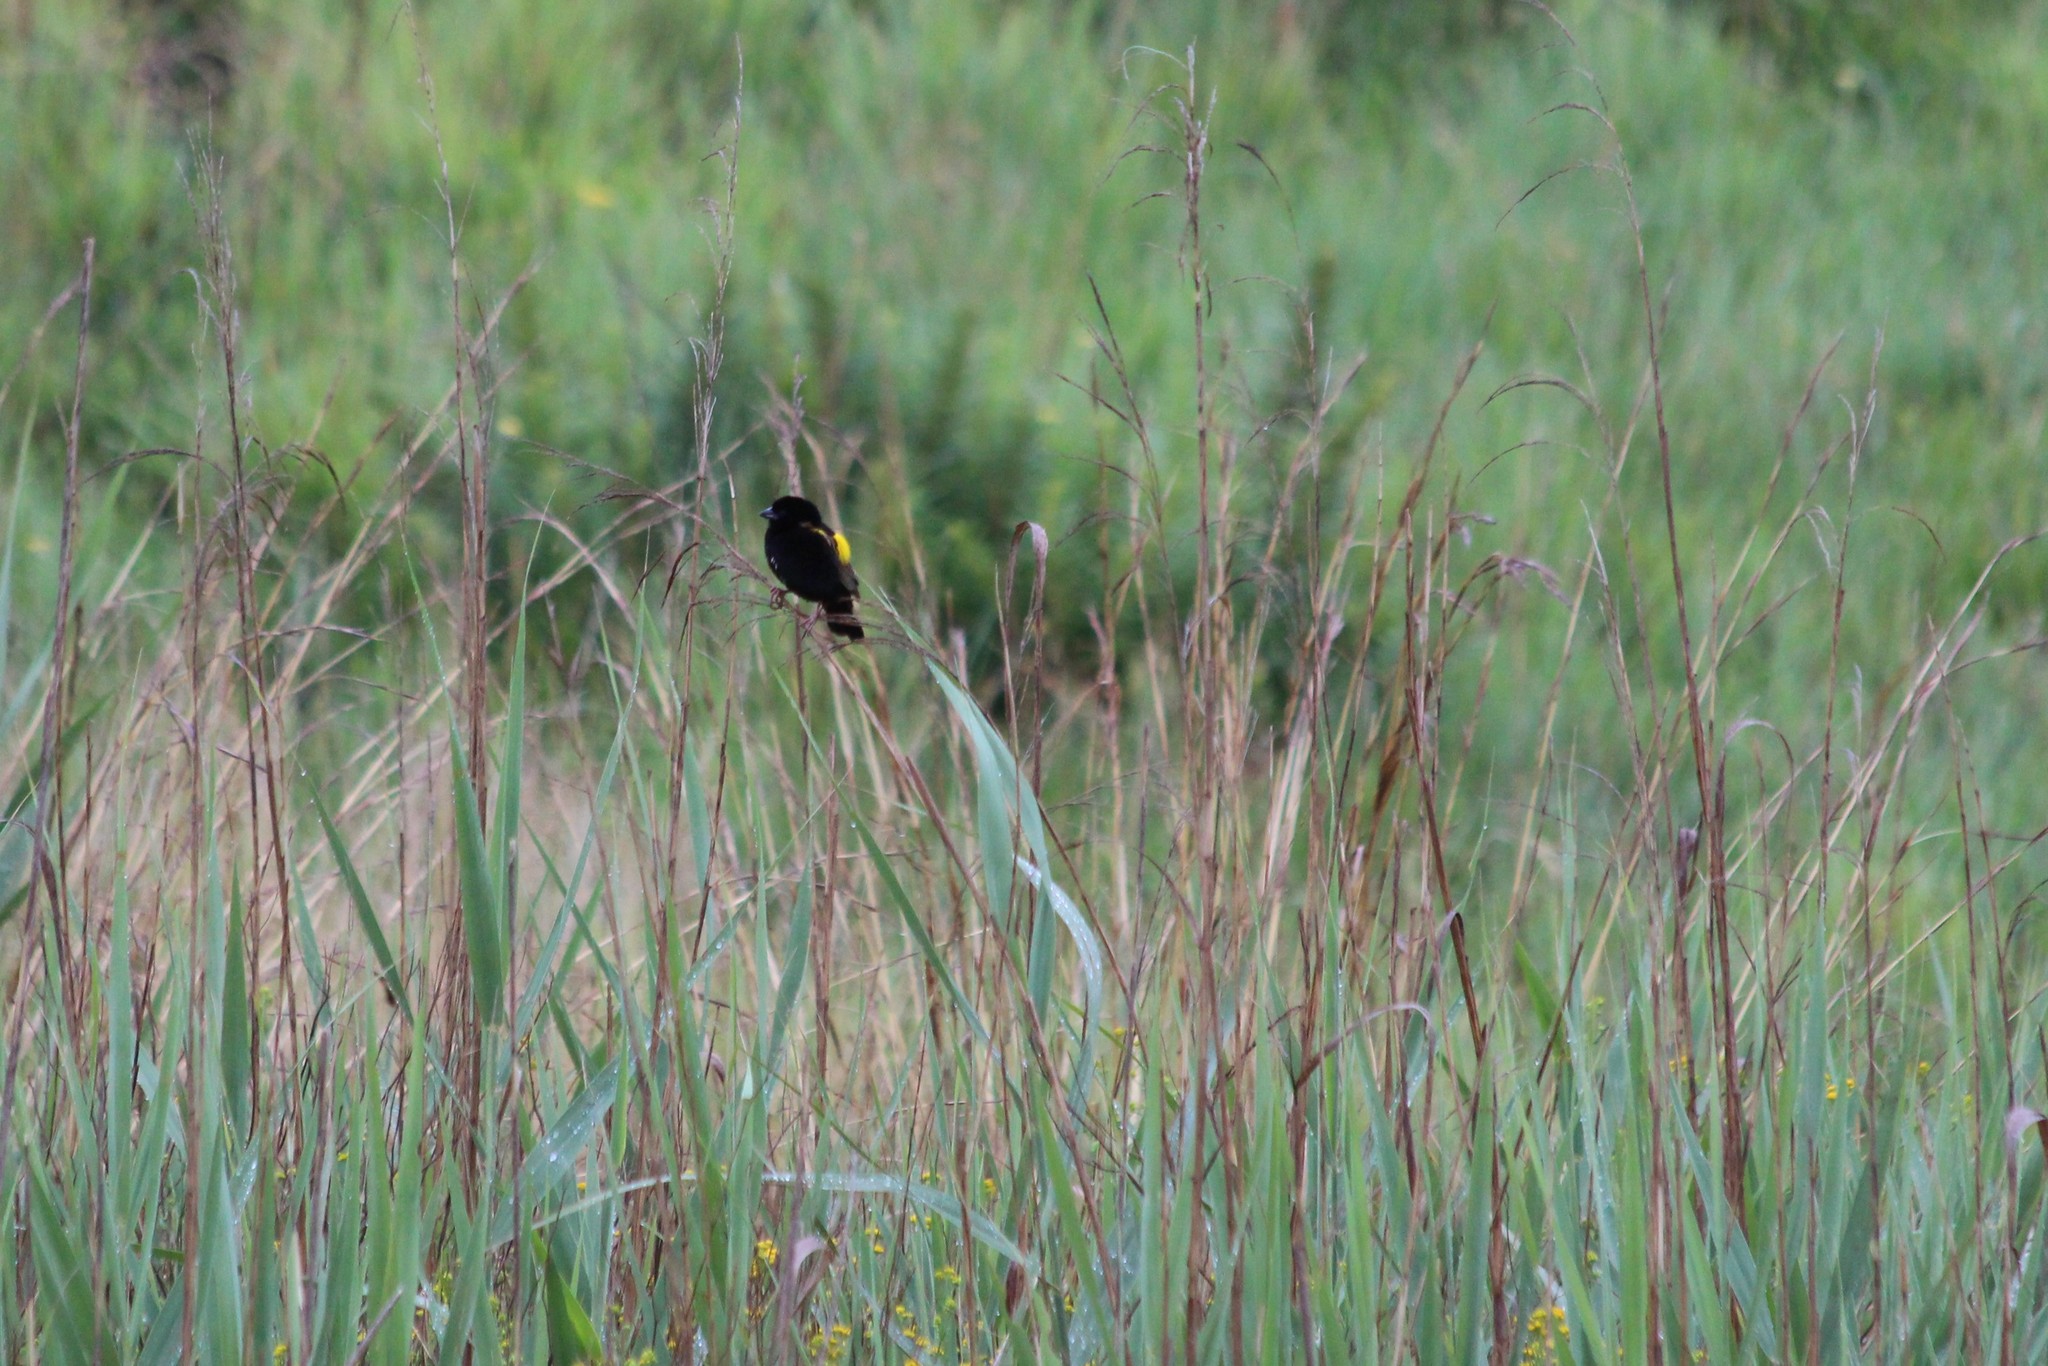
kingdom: Animalia
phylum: Chordata
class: Aves
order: Passeriformes
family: Ploceidae
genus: Euplectes
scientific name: Euplectes capensis
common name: Yellow bishop
